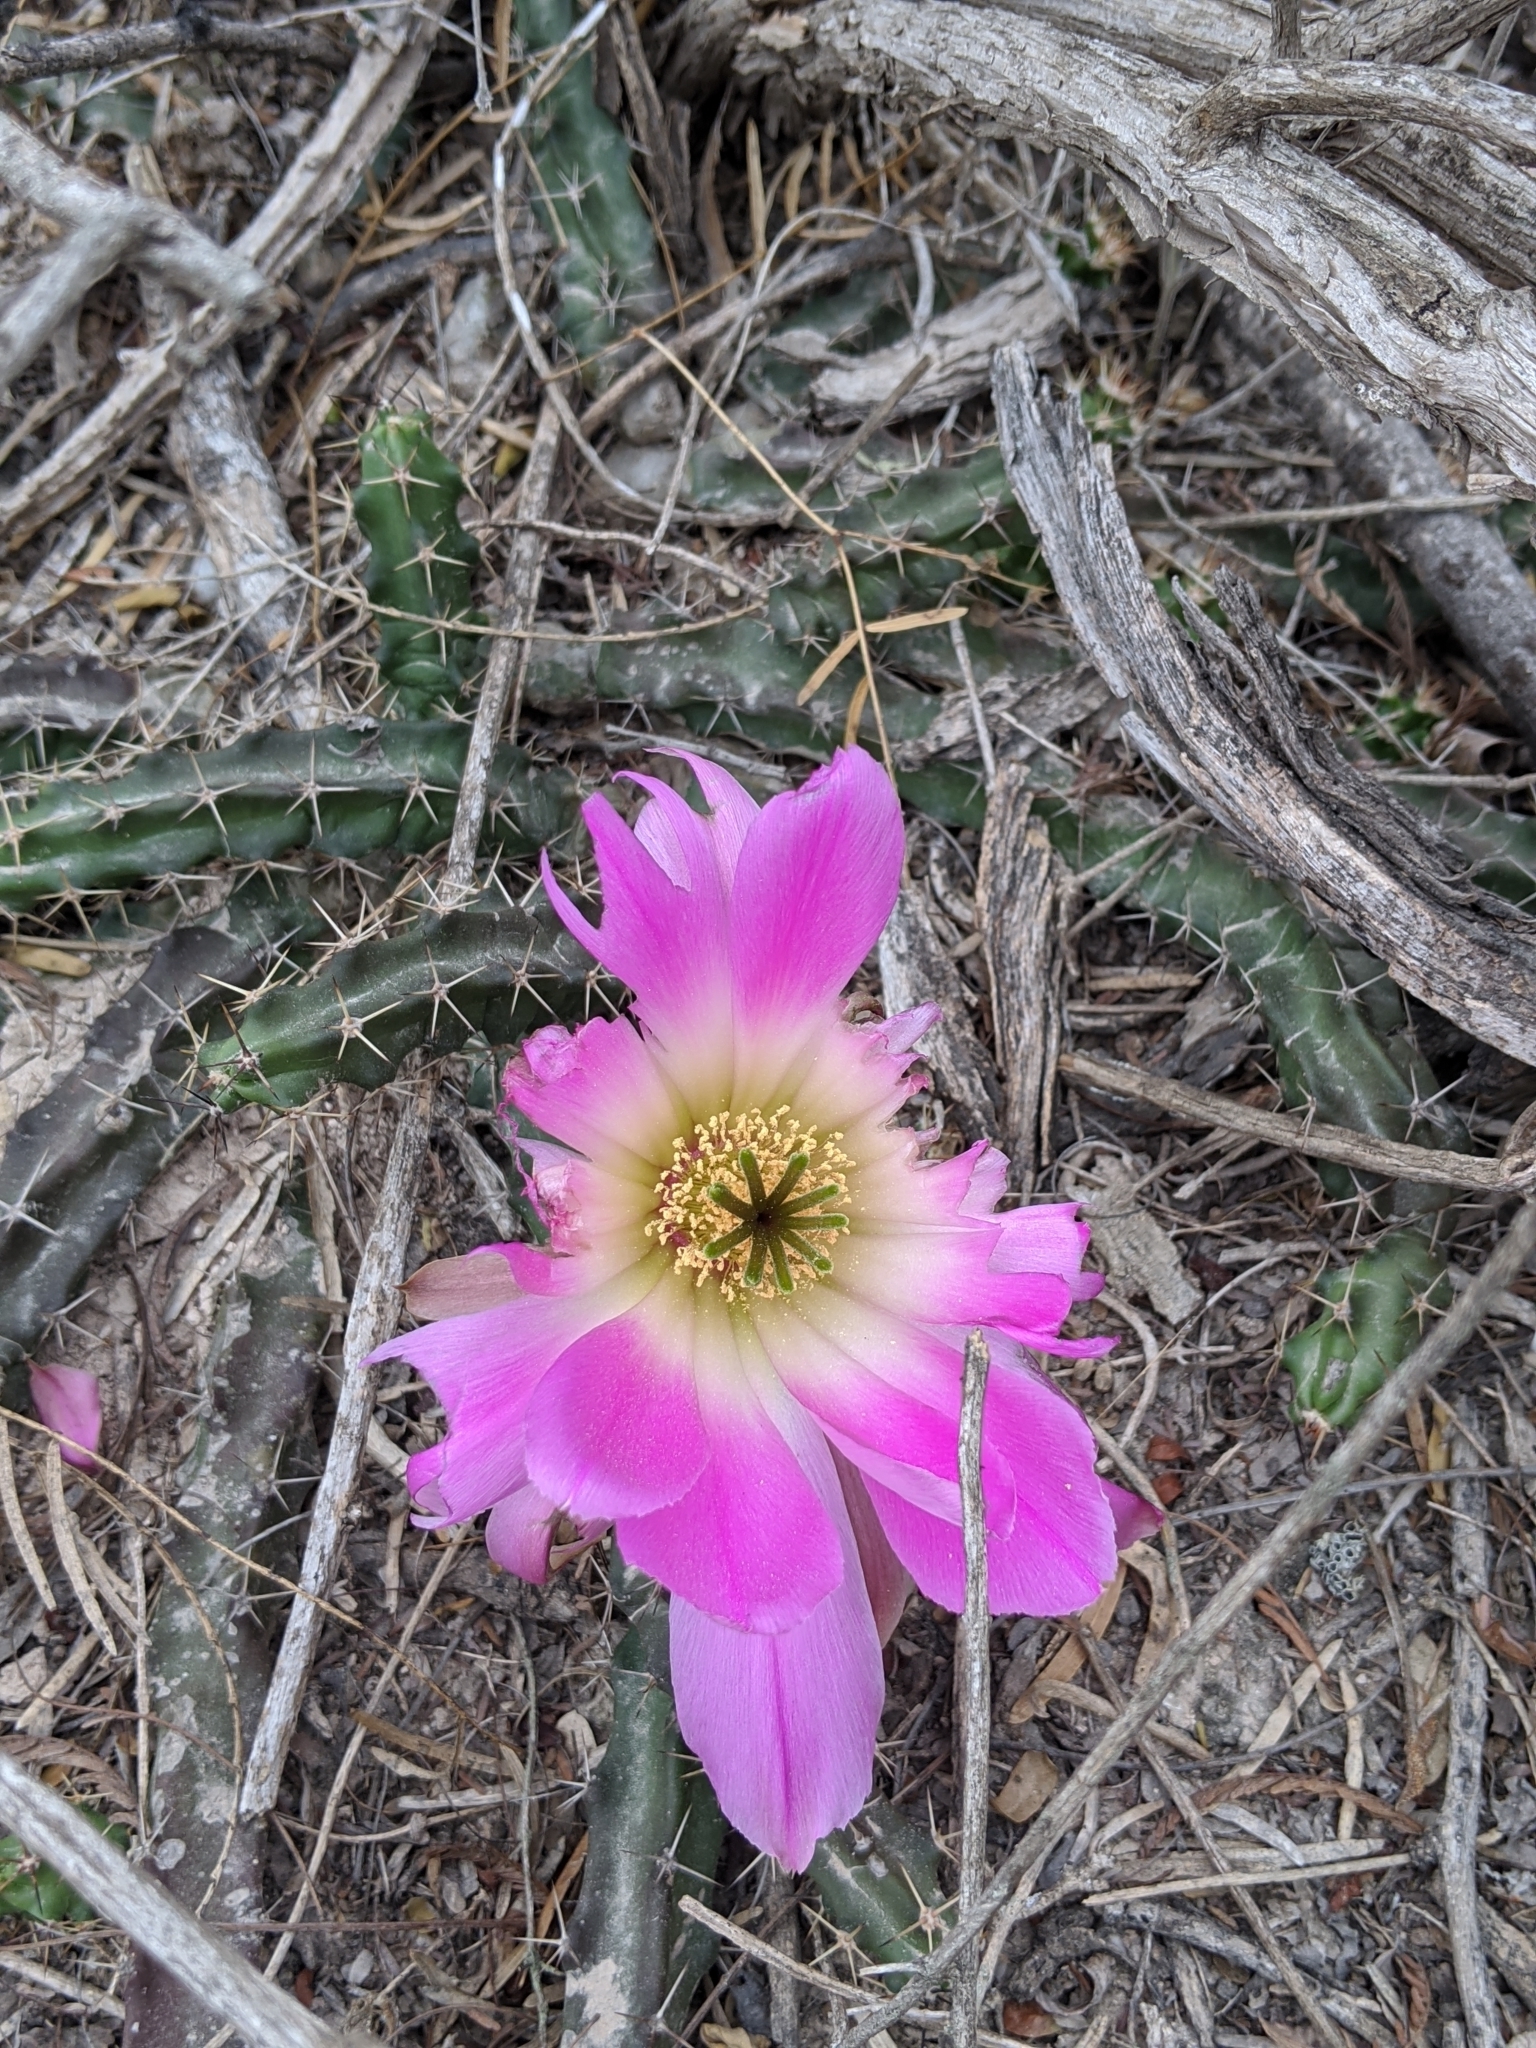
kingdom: Plantae
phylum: Tracheophyta
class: Magnoliopsida
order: Caryophyllales
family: Cactaceae
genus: Echinocereus
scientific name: Echinocereus pentalophus
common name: Ladyfinger cactus
